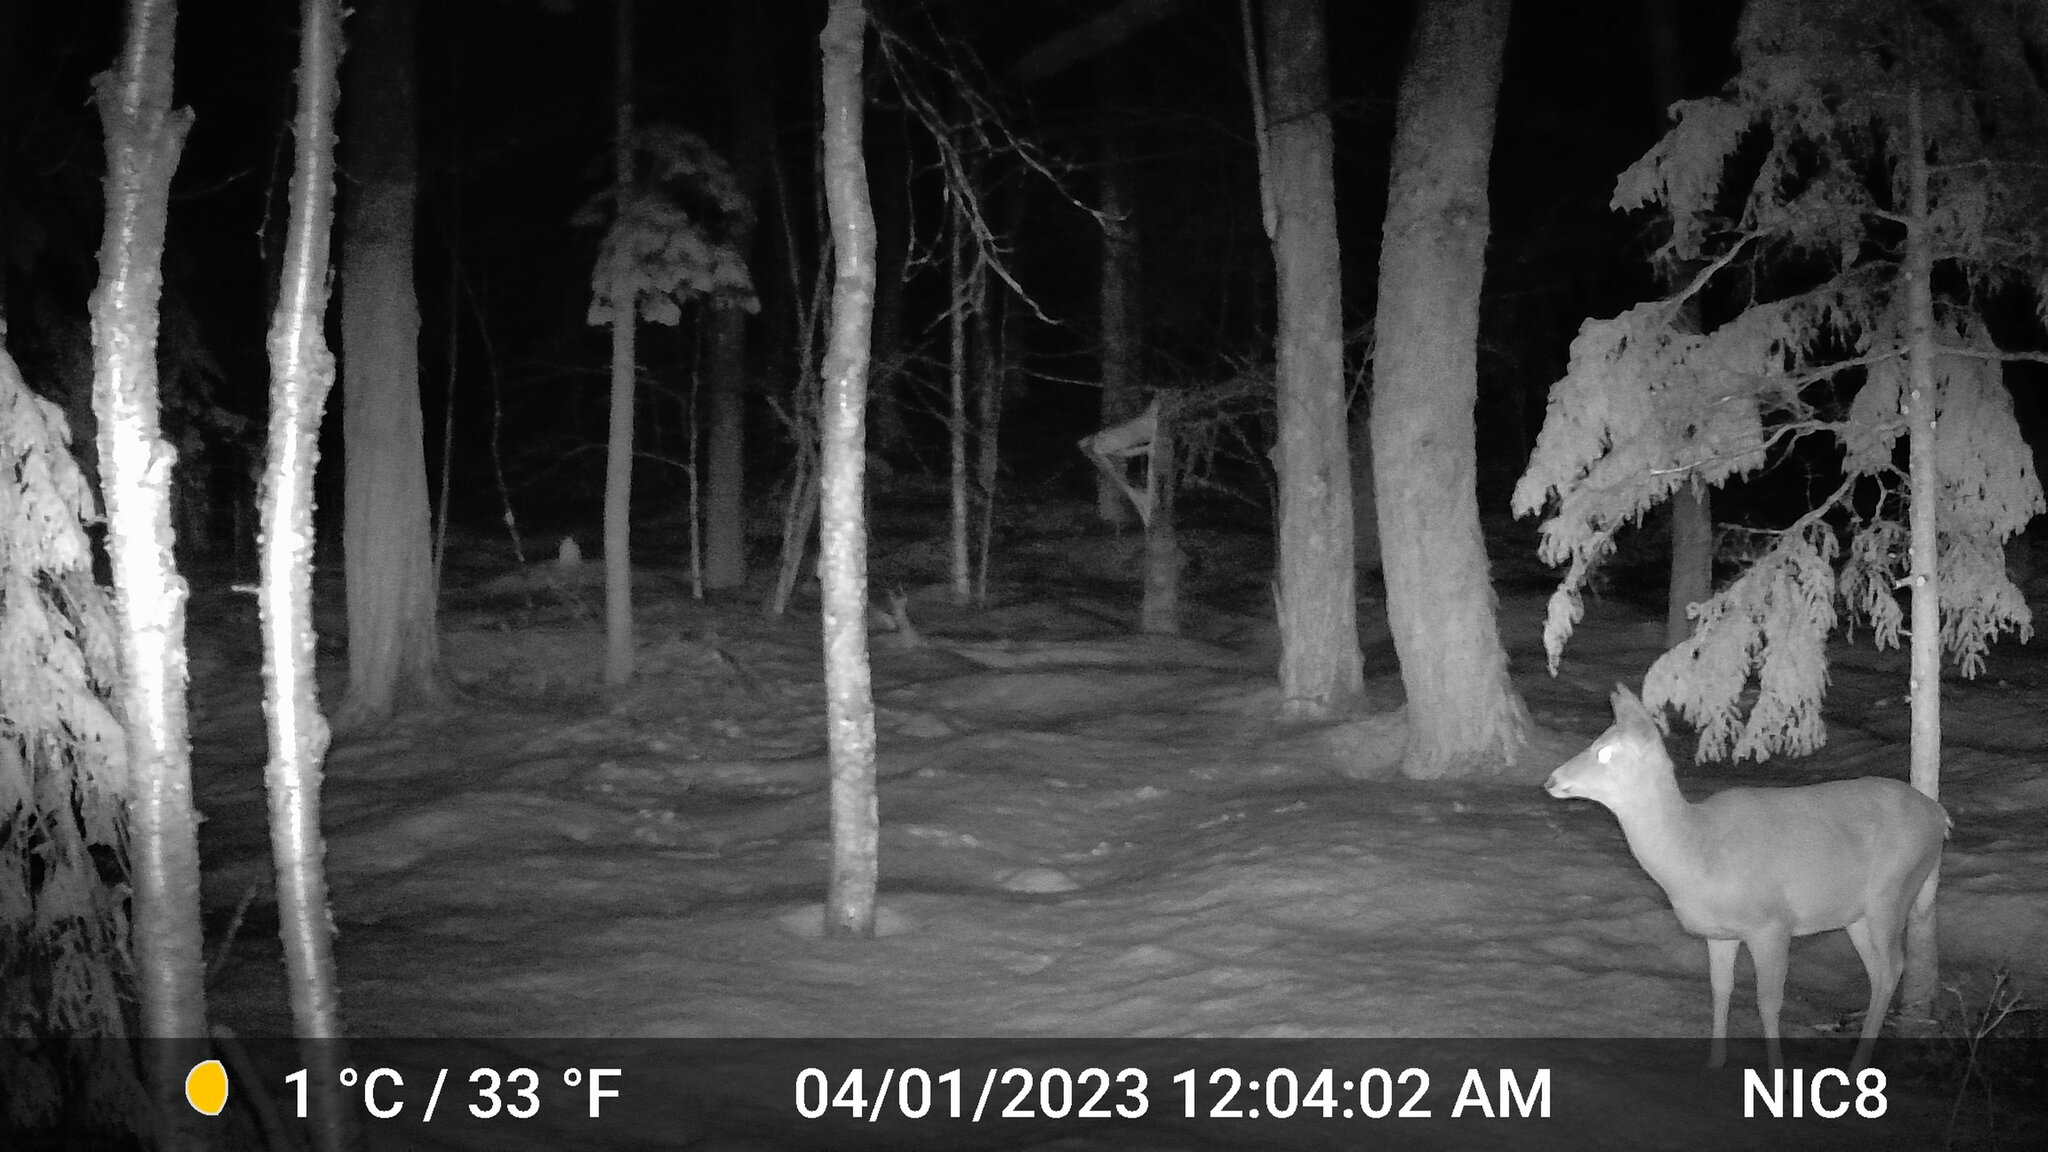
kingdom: Animalia
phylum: Chordata
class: Mammalia
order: Artiodactyla
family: Cervidae
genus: Odocoileus
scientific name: Odocoileus virginianus
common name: White-tailed deer
